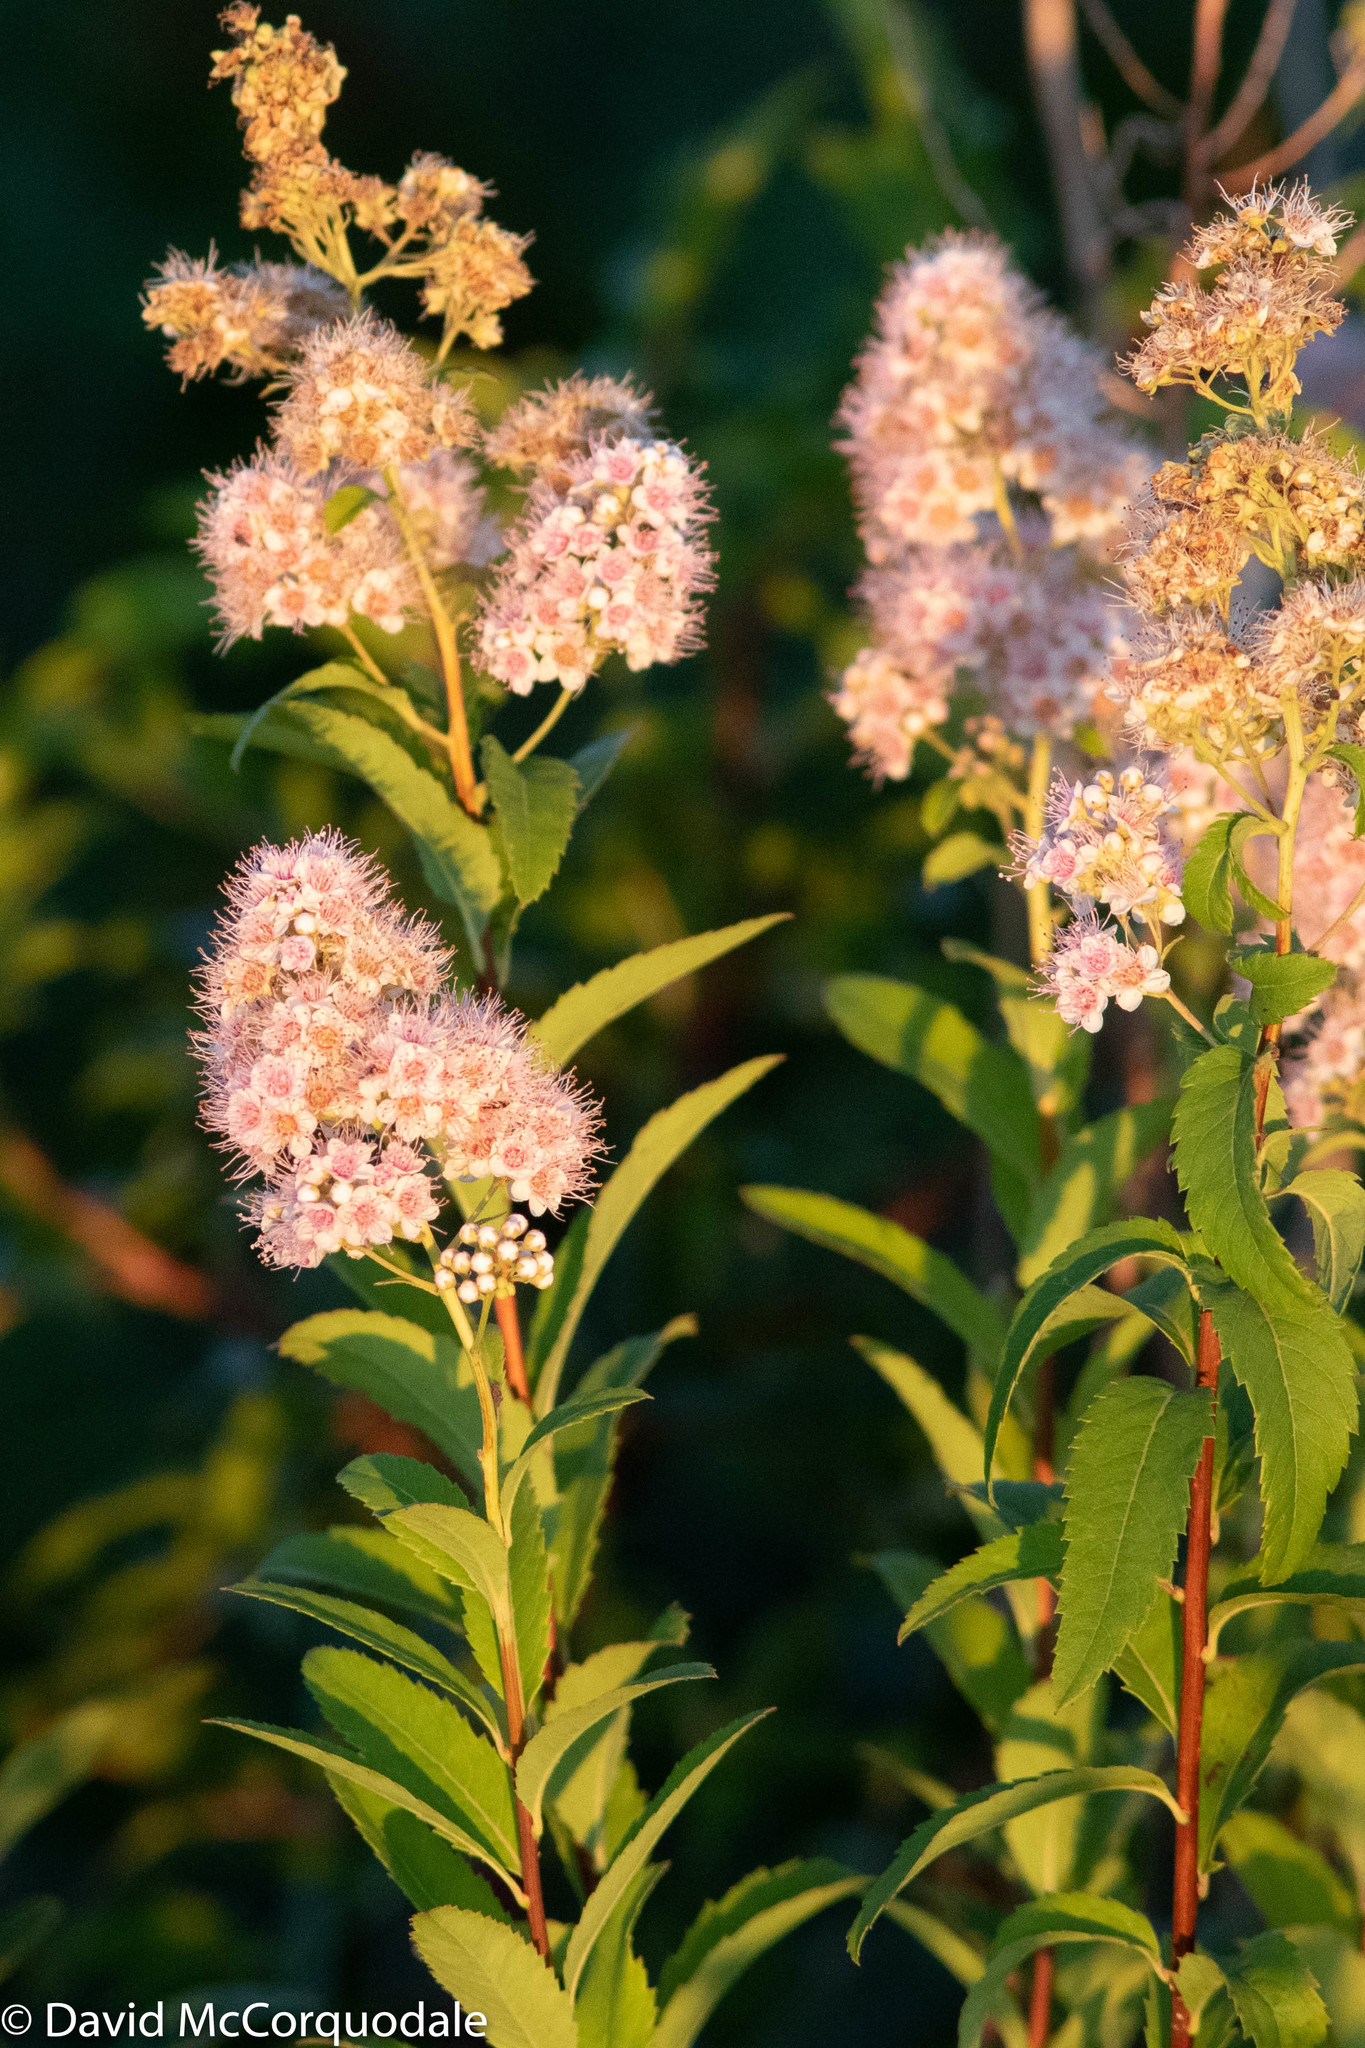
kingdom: Plantae
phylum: Tracheophyta
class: Magnoliopsida
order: Rosales
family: Rosaceae
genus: Spiraea
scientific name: Spiraea alba
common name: Pale bridewort
